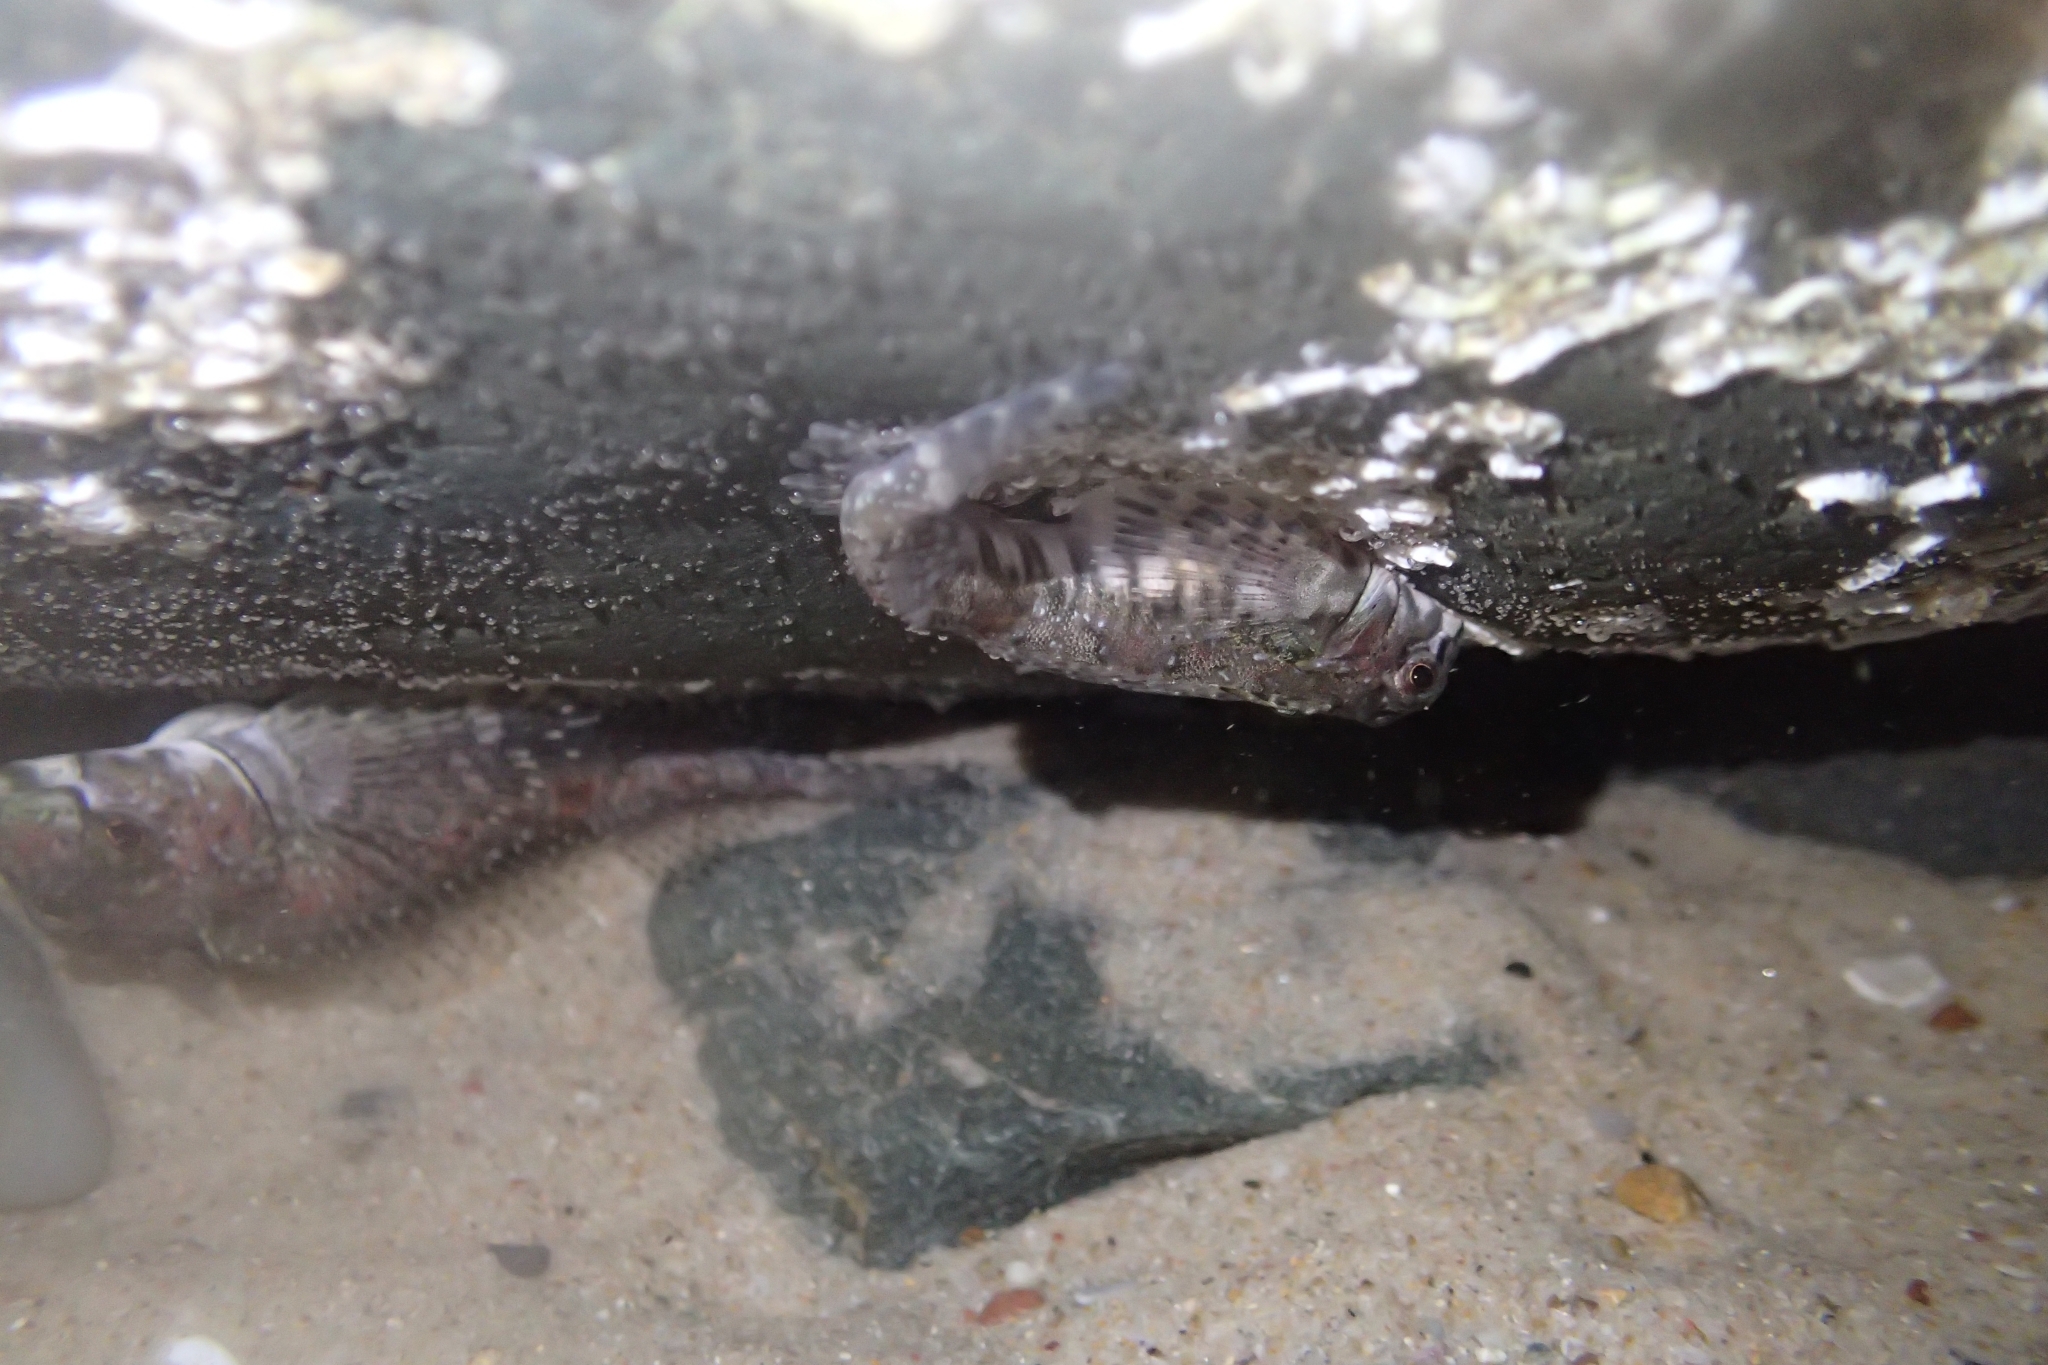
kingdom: Animalia
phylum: Chordata
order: Perciformes
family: Tripterygiidae
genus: Lepidoblennius
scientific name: Lepidoblennius haplodactylus
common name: Eastern jumping blenny
